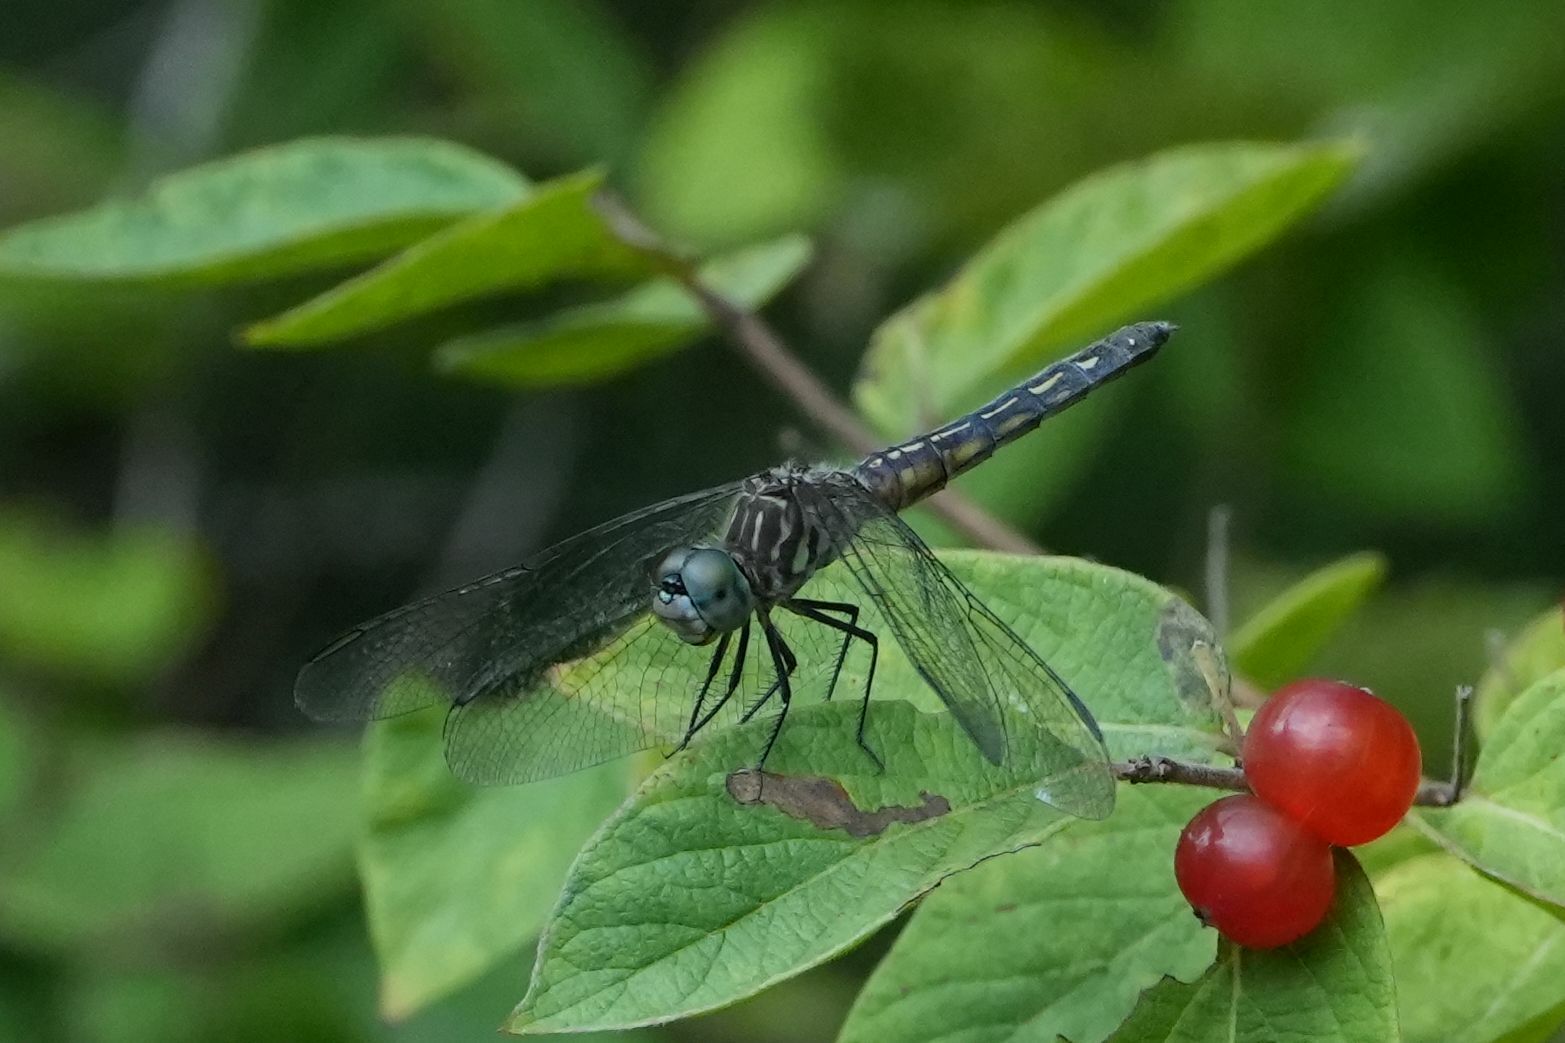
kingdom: Animalia
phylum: Arthropoda
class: Insecta
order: Odonata
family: Libellulidae
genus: Pachydiplax
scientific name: Pachydiplax longipennis
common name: Blue dasher
